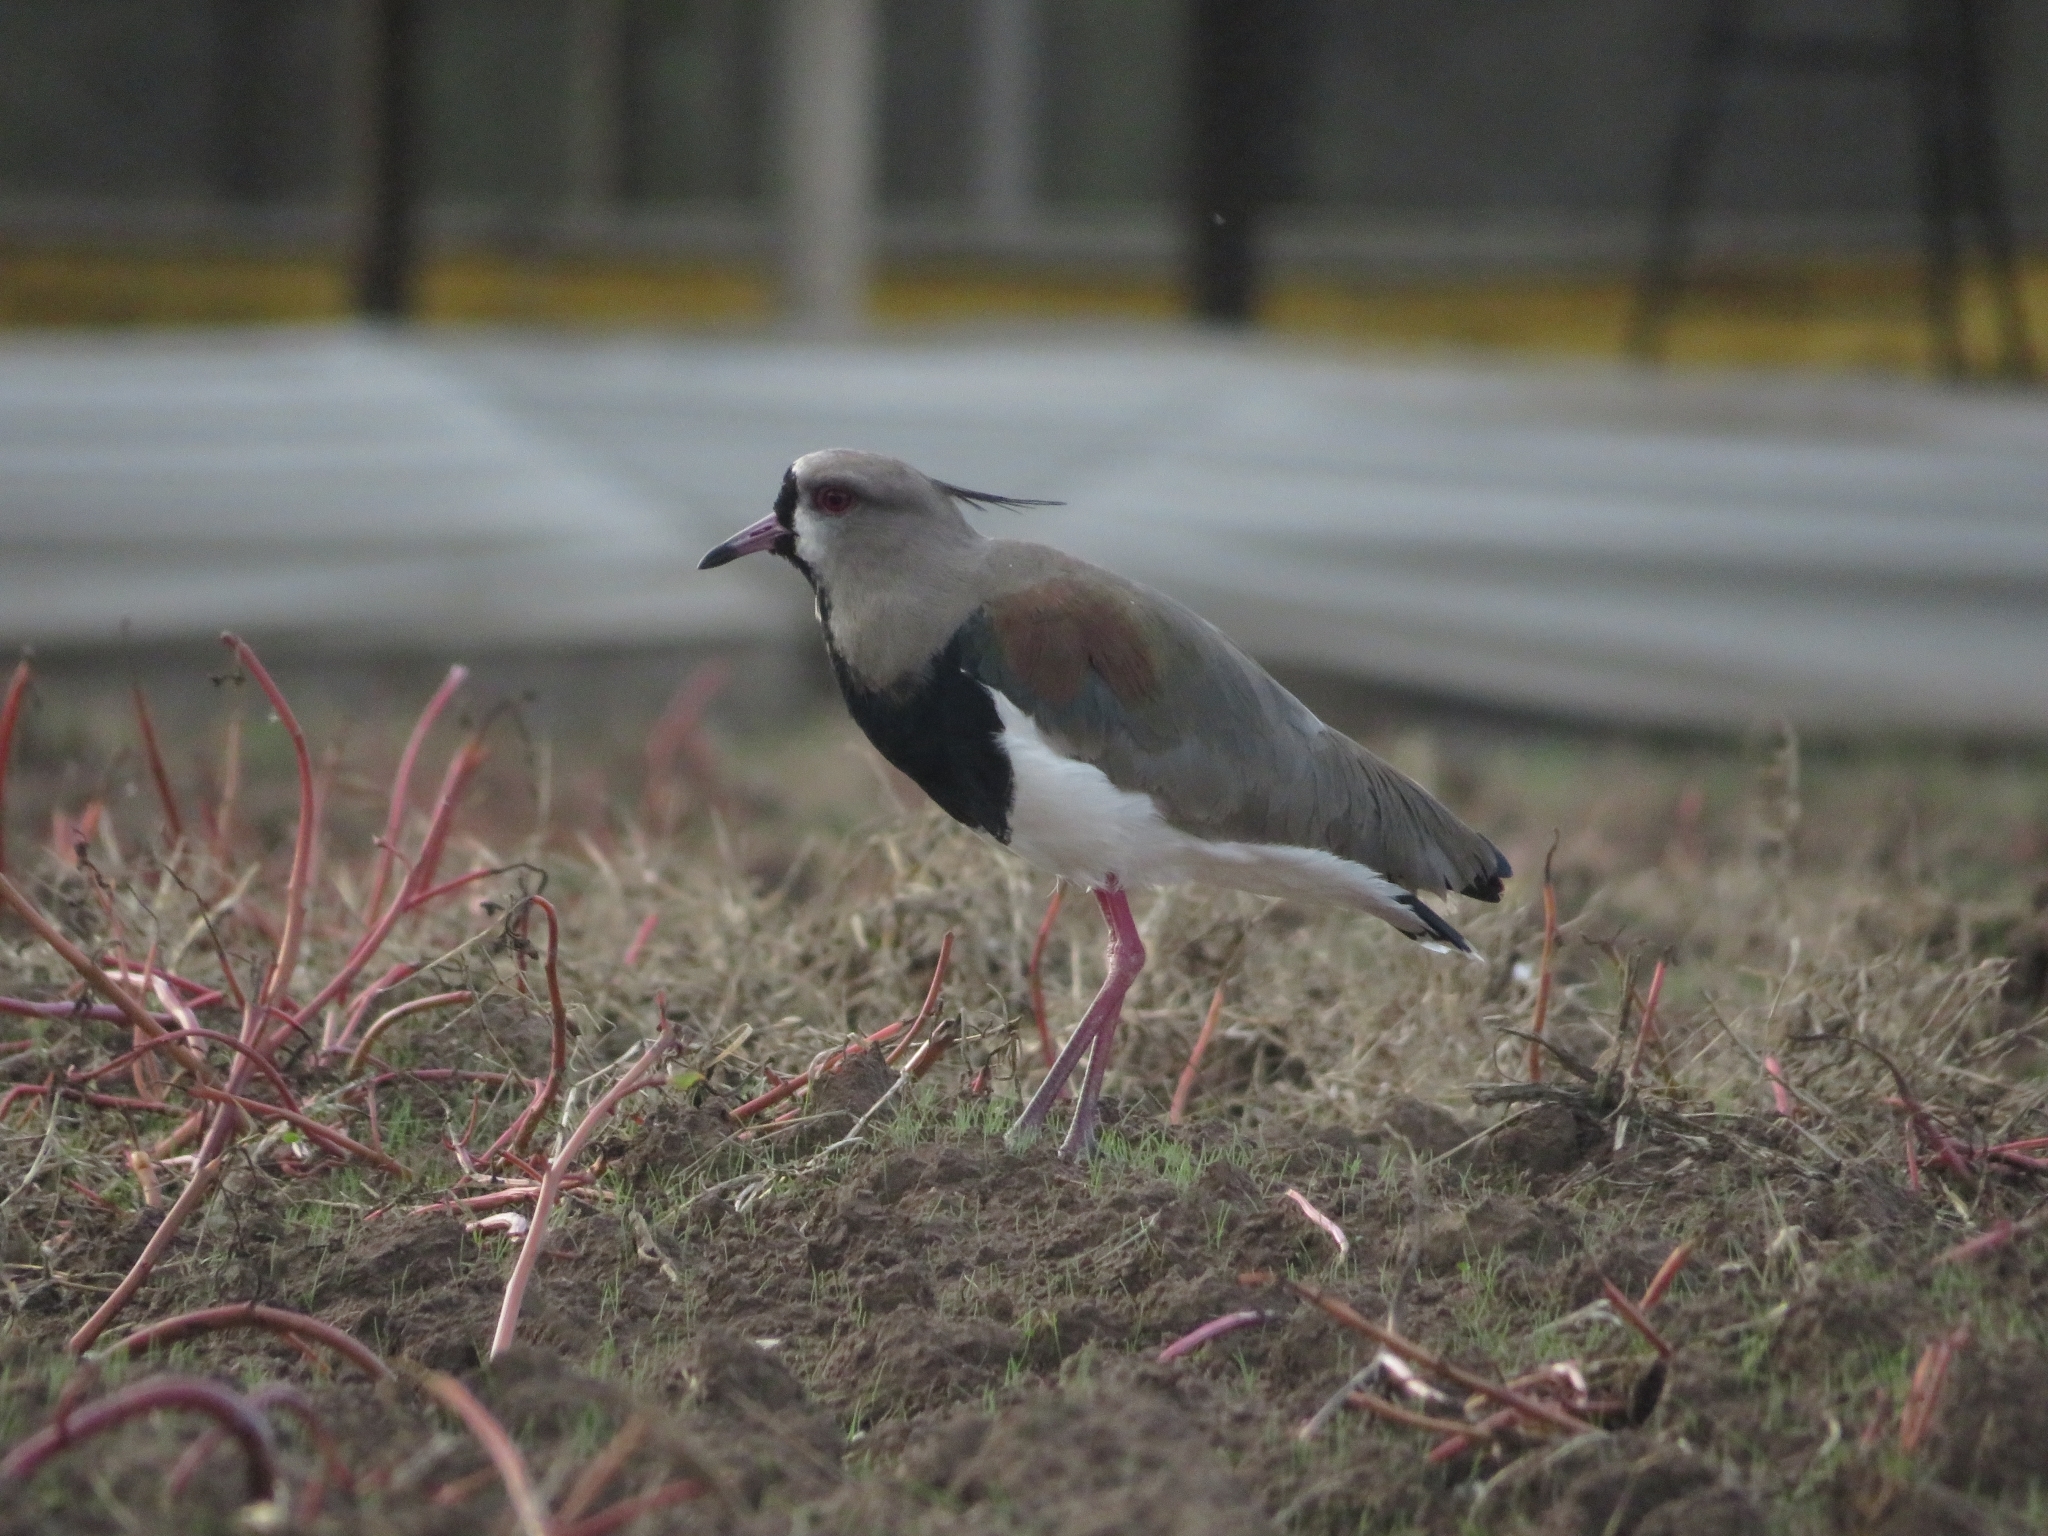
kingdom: Animalia
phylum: Chordata
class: Aves
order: Charadriiformes
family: Charadriidae
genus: Vanellus
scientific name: Vanellus chilensis
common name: Southern lapwing
